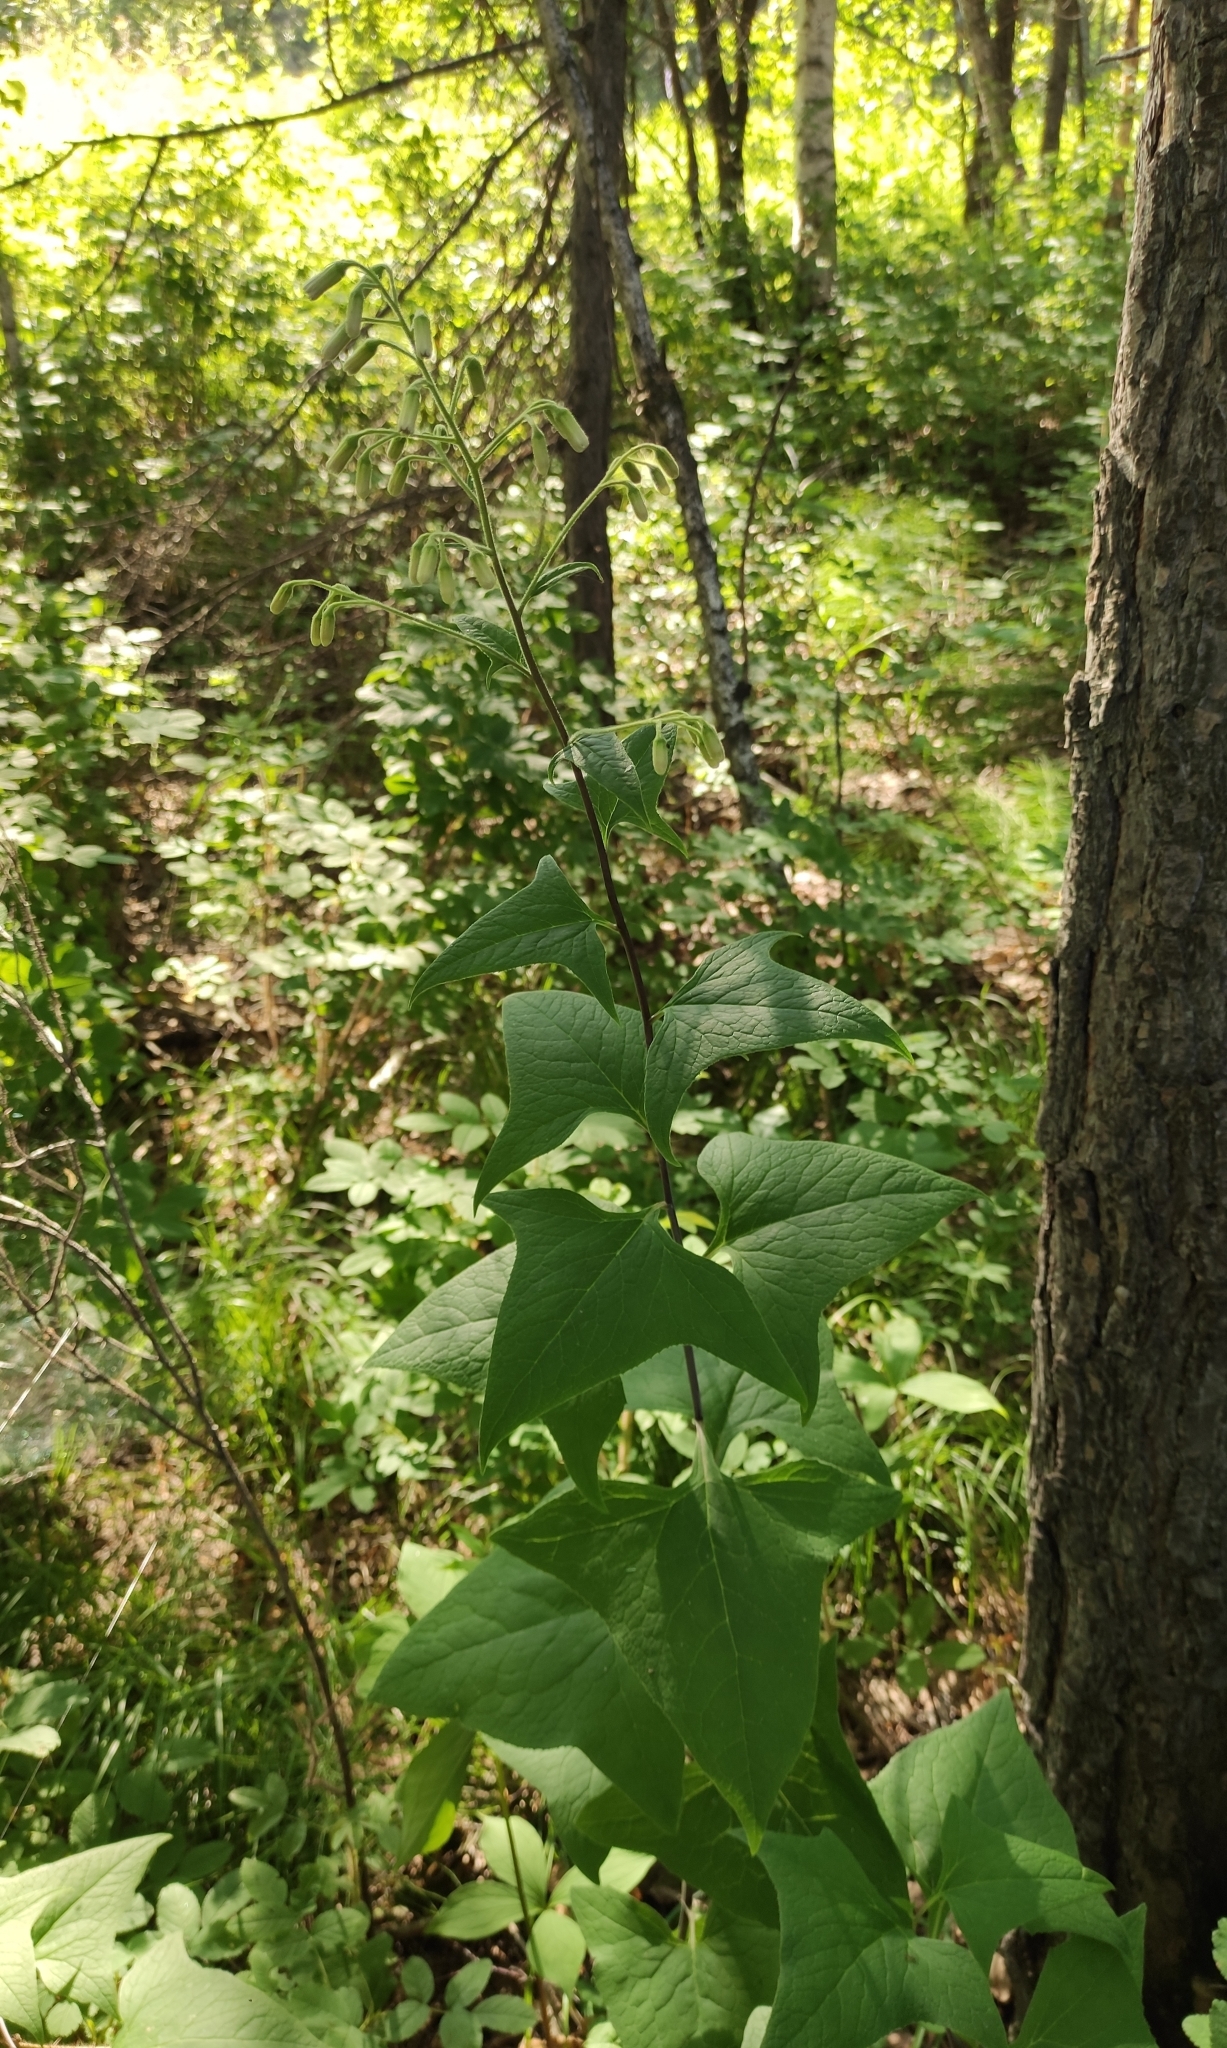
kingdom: Plantae
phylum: Tracheophyta
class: Magnoliopsida
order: Asterales
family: Asteraceae
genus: Parasenecio
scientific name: Parasenecio hastatus
